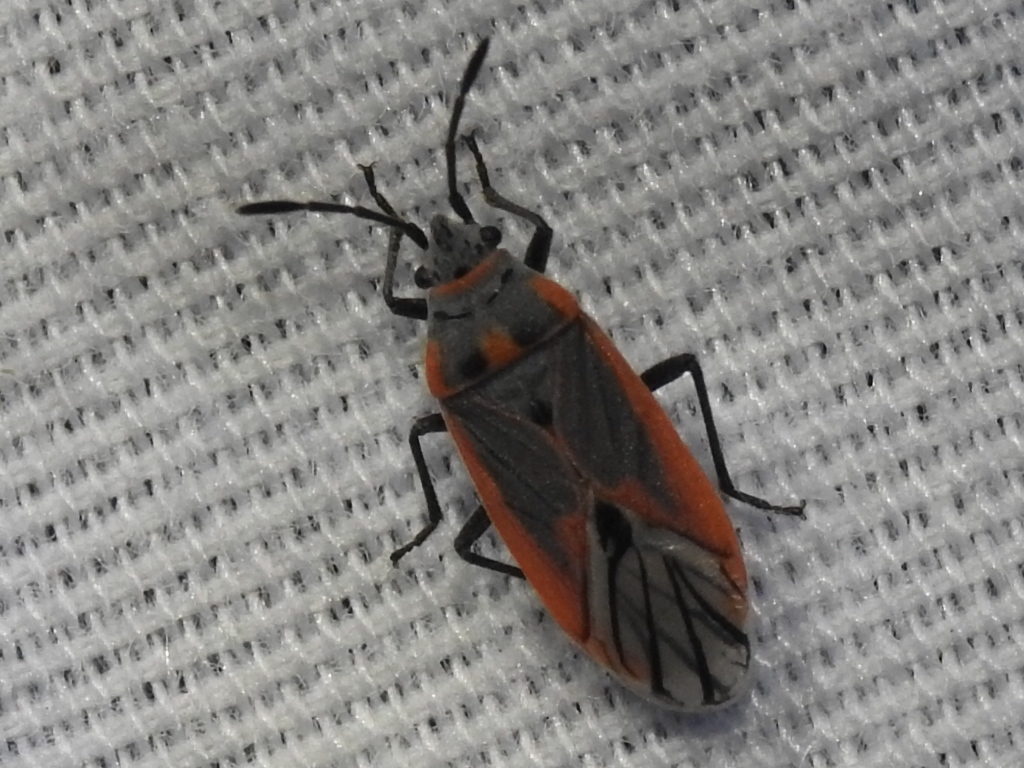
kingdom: Animalia
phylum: Arthropoda
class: Insecta
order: Hemiptera
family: Lygaeidae
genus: Melacoryphus
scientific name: Melacoryphus nigrinervis
